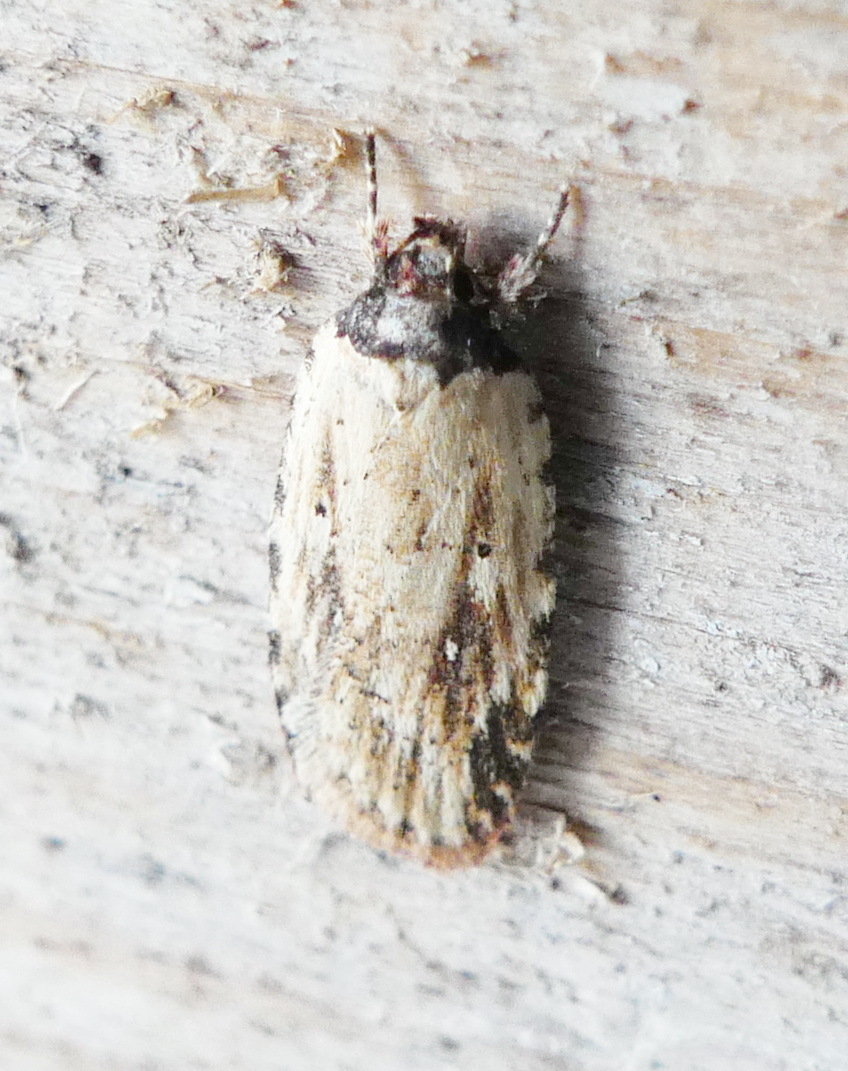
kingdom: Animalia
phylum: Arthropoda
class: Insecta
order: Lepidoptera
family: Depressariidae
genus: Agonopterix
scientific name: Agonopterix atrodorsella
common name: Beggartick leaffolder
